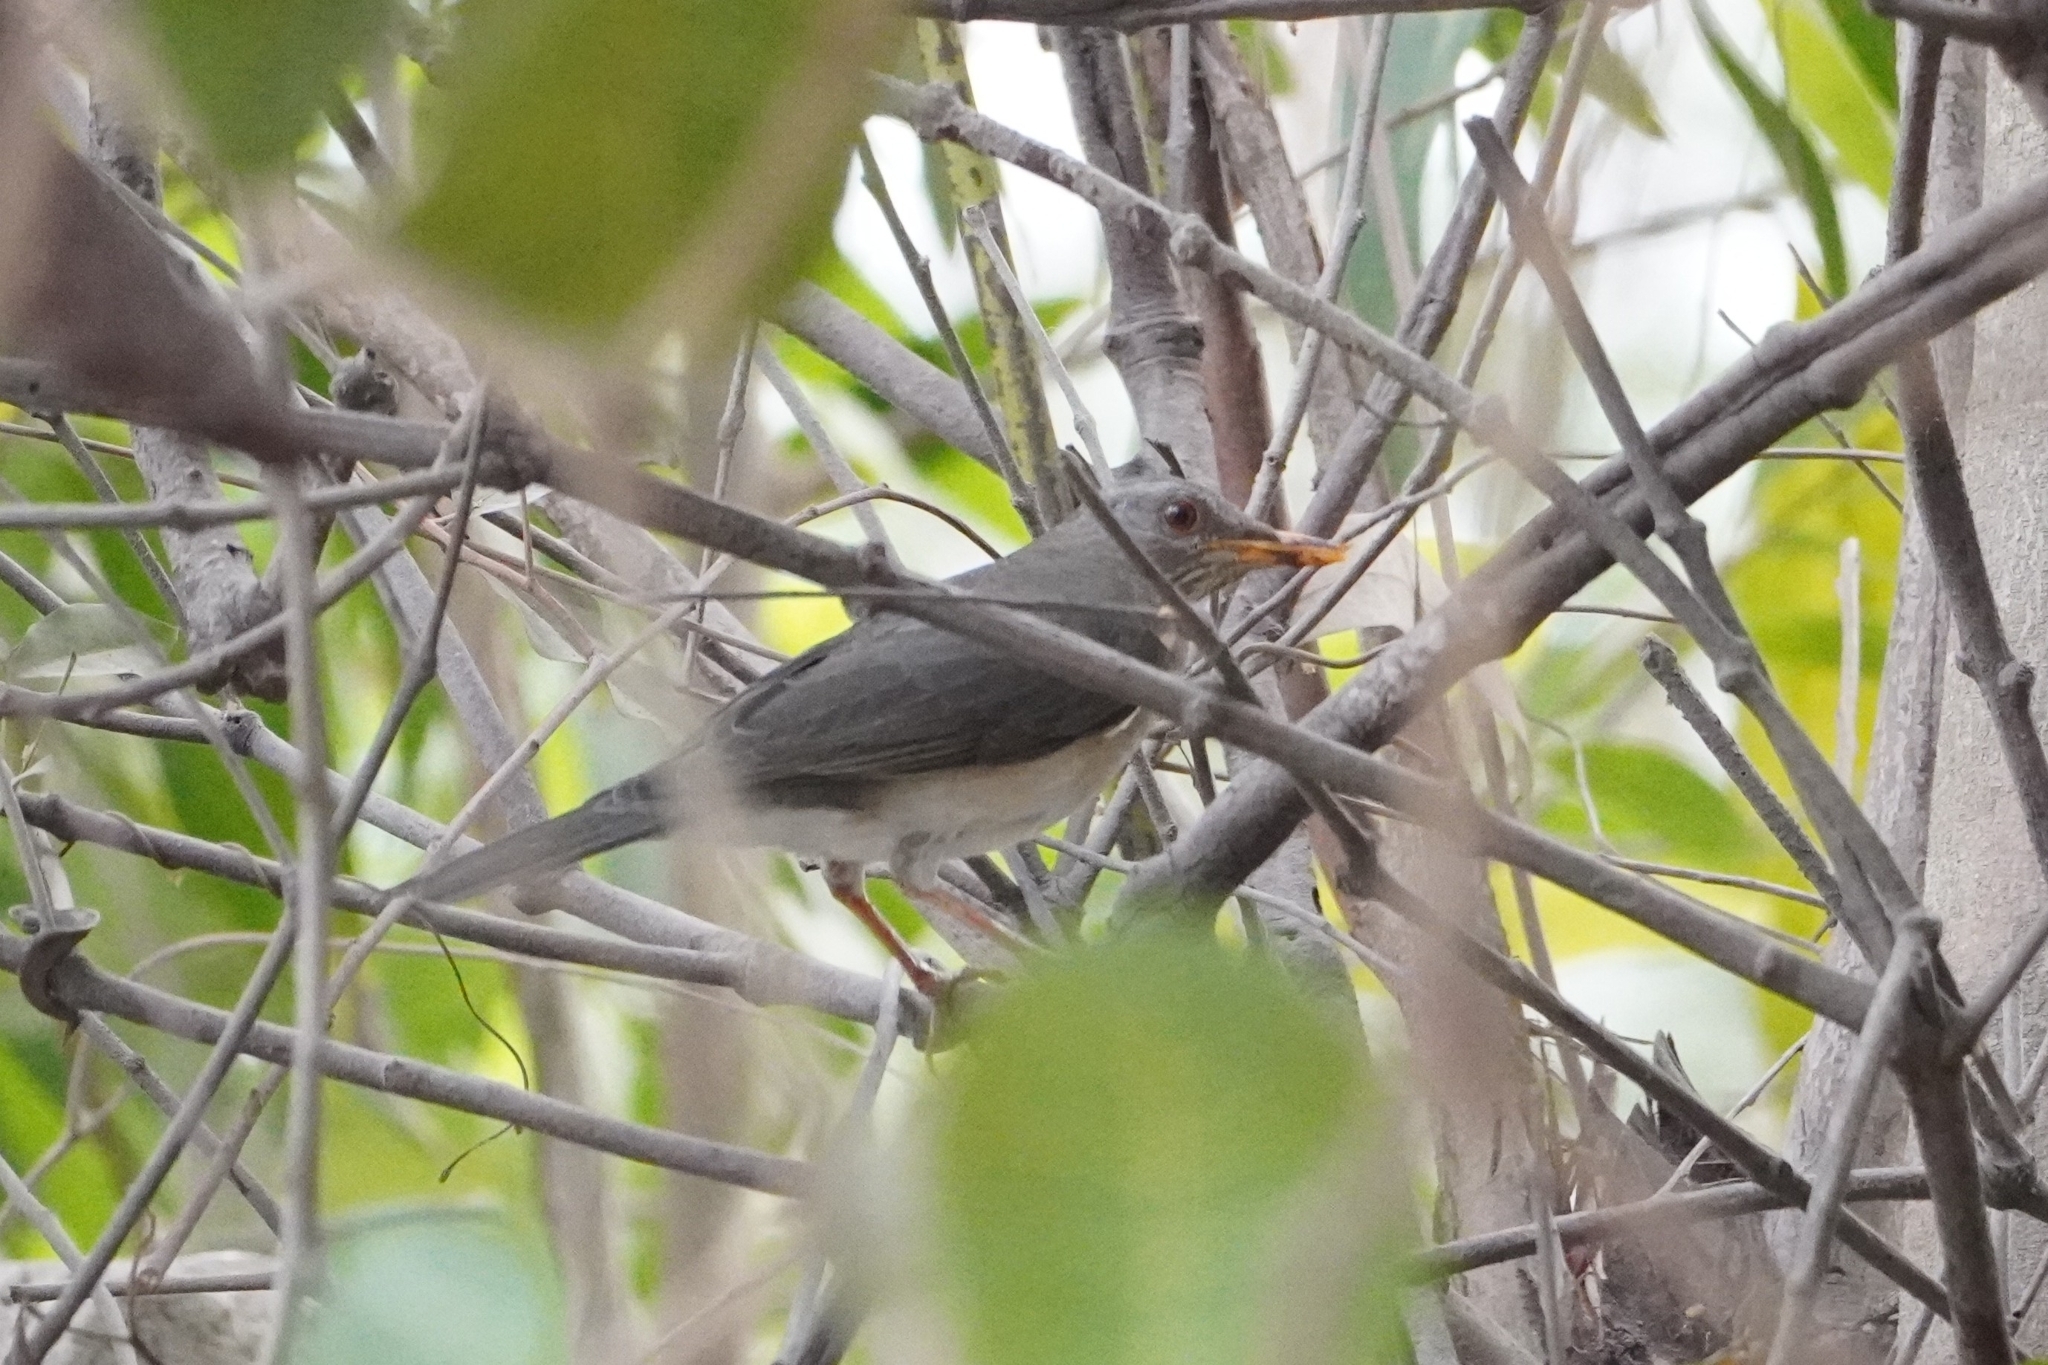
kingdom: Animalia
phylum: Chordata
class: Aves
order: Passeriformes
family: Turdidae
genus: Turdus
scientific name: Turdus pelios
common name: African thrush
